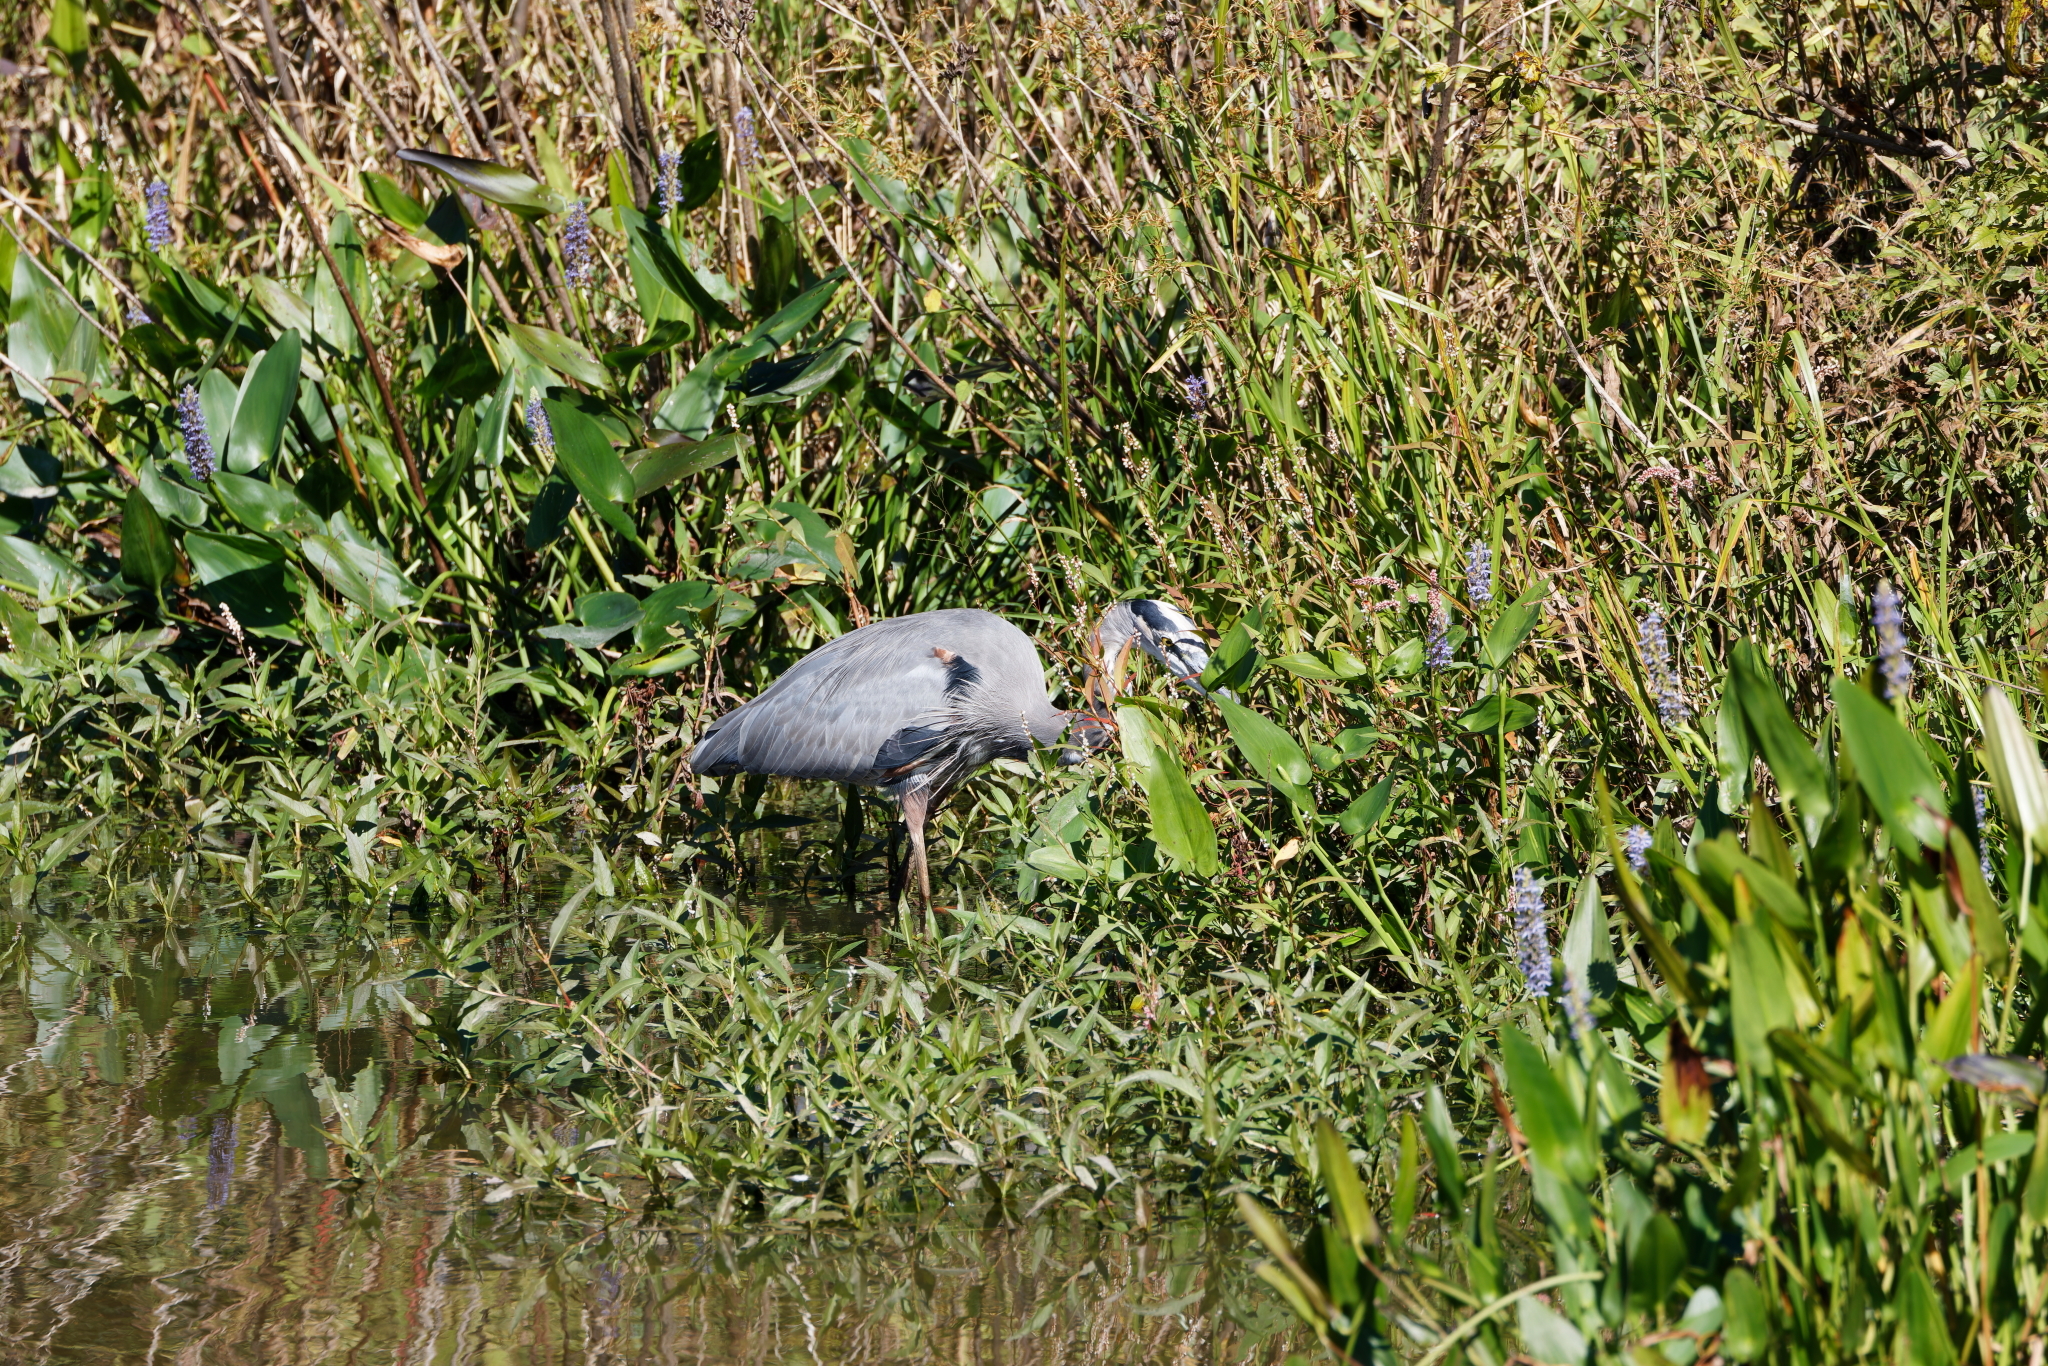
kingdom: Animalia
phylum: Chordata
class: Aves
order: Pelecaniformes
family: Ardeidae
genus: Ardea
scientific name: Ardea herodias
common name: Great blue heron
